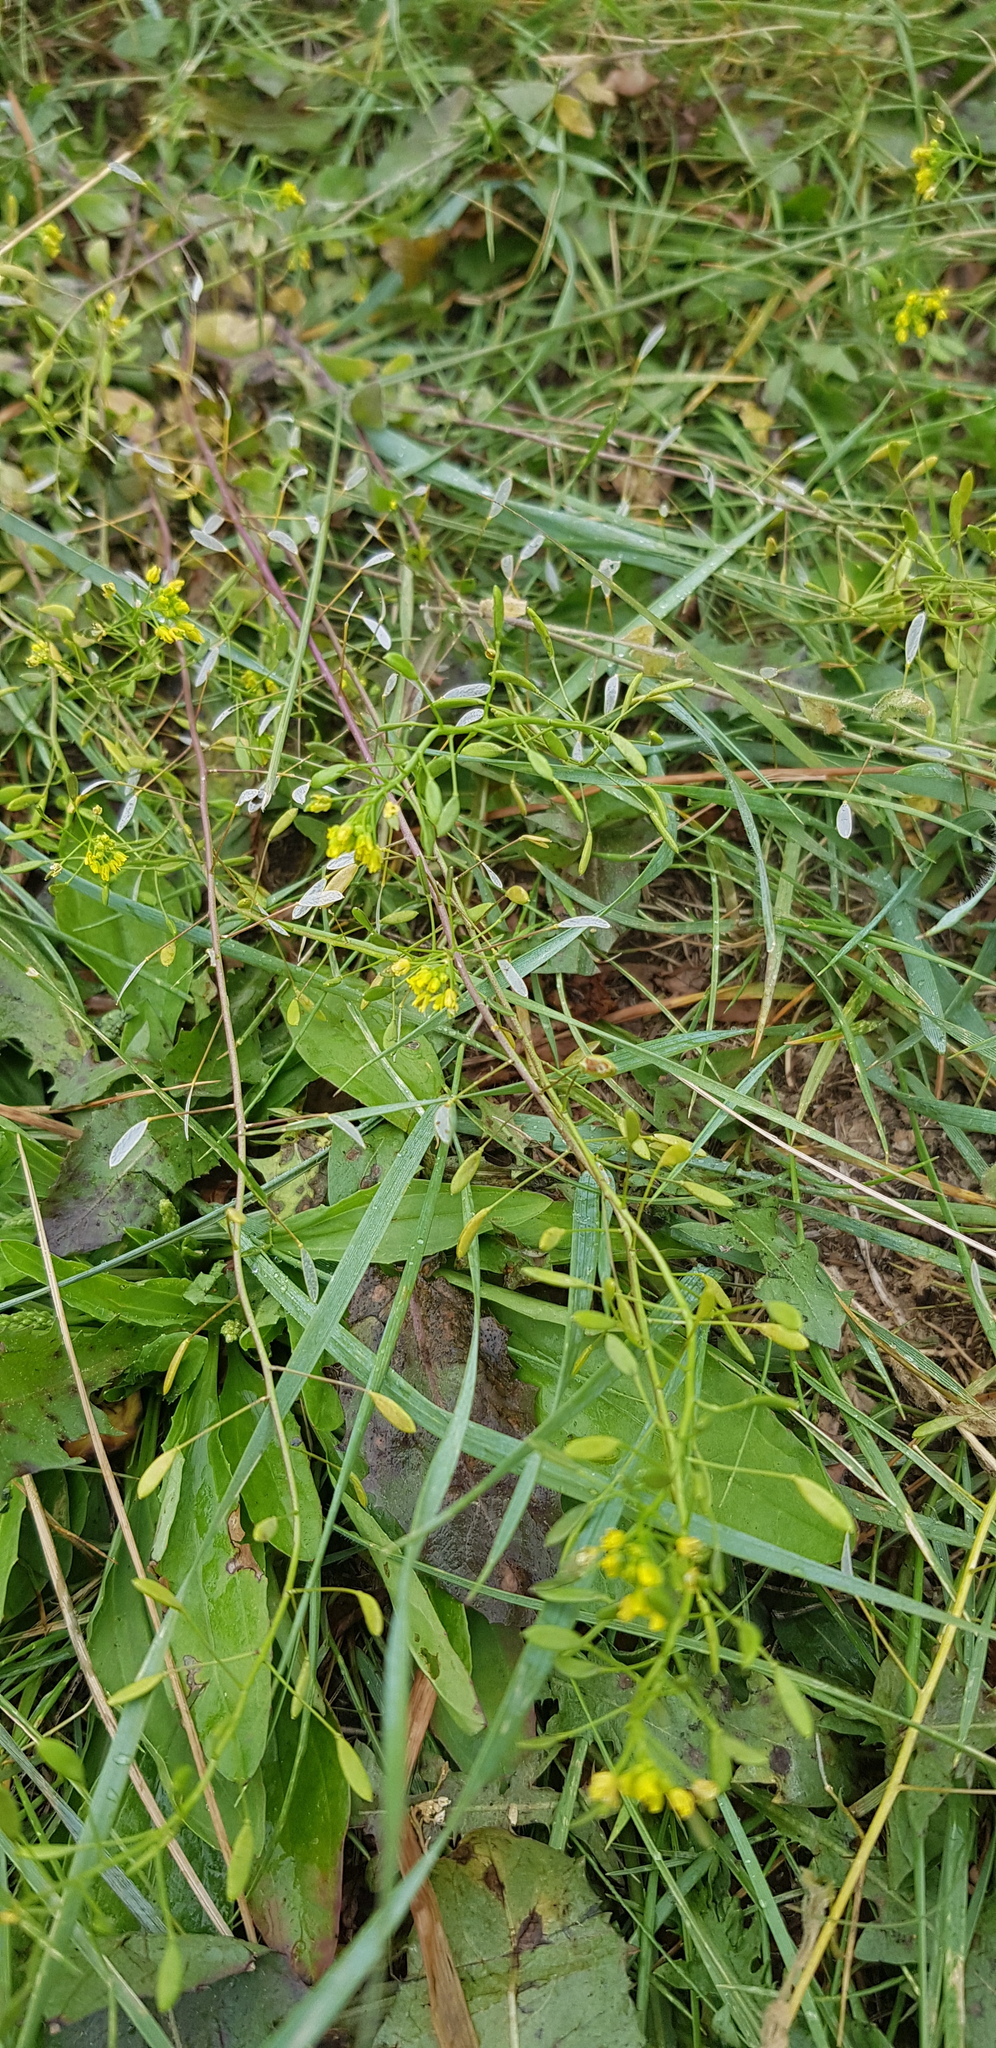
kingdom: Plantae
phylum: Tracheophyta
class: Magnoliopsida
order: Brassicales
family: Brassicaceae
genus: Draba
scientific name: Draba nemorosa
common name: Wood whitlow-grass
